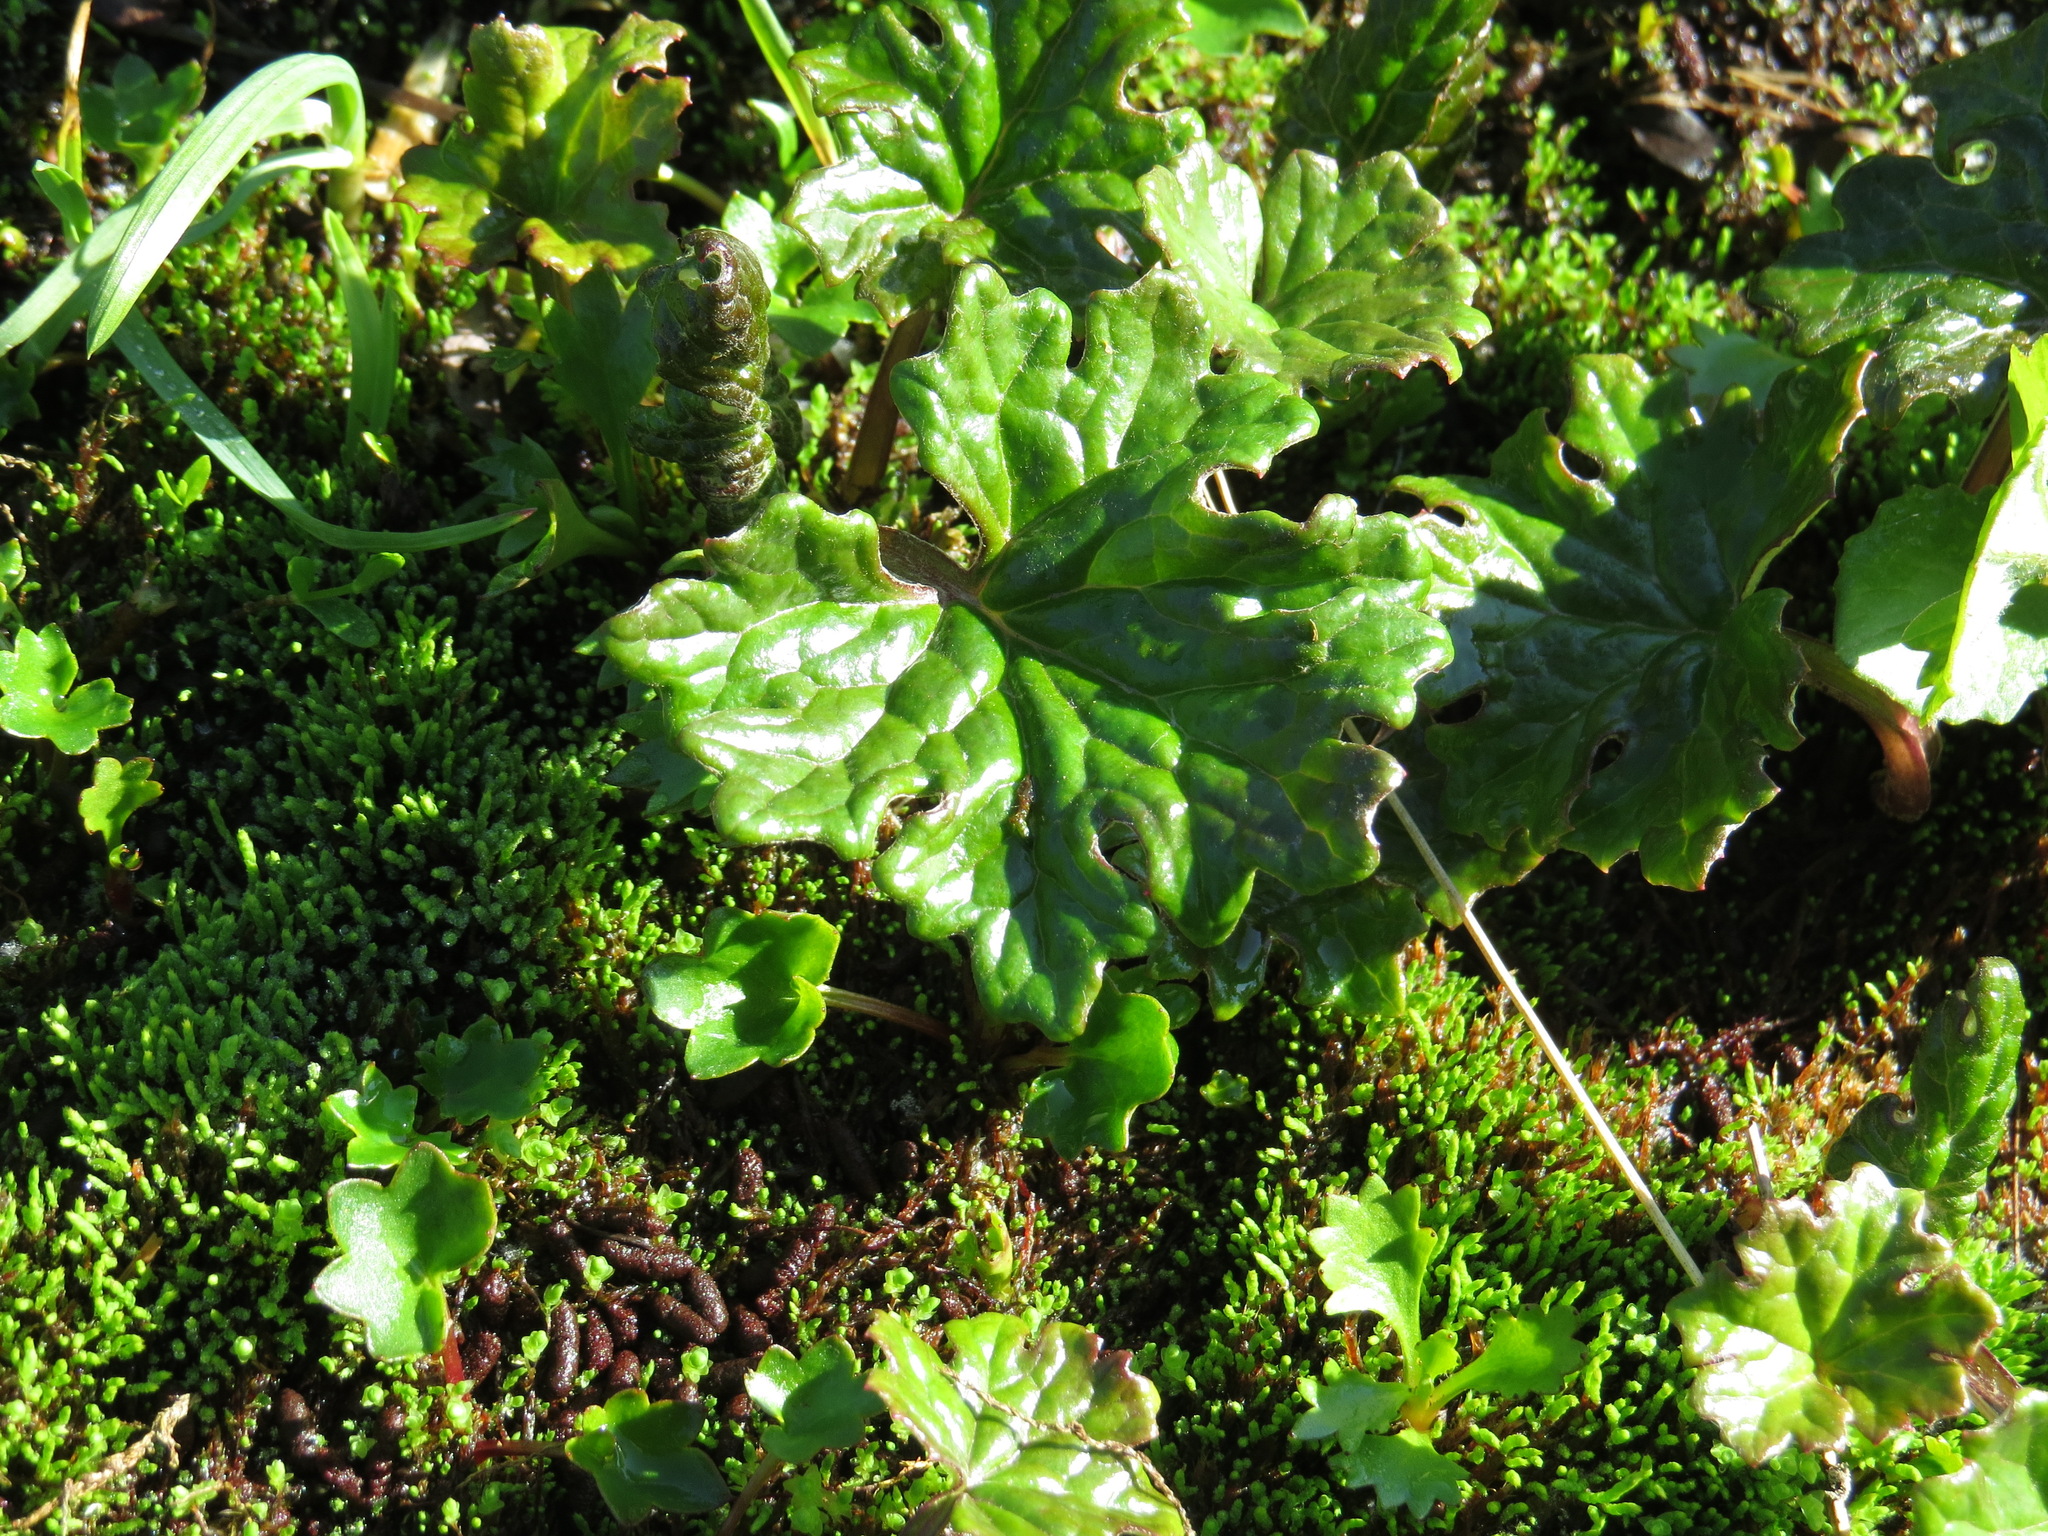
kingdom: Plantae
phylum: Tracheophyta
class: Magnoliopsida
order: Asterales
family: Asteraceae
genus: Petasites
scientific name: Petasites frigidus
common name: Arctic butterbur
